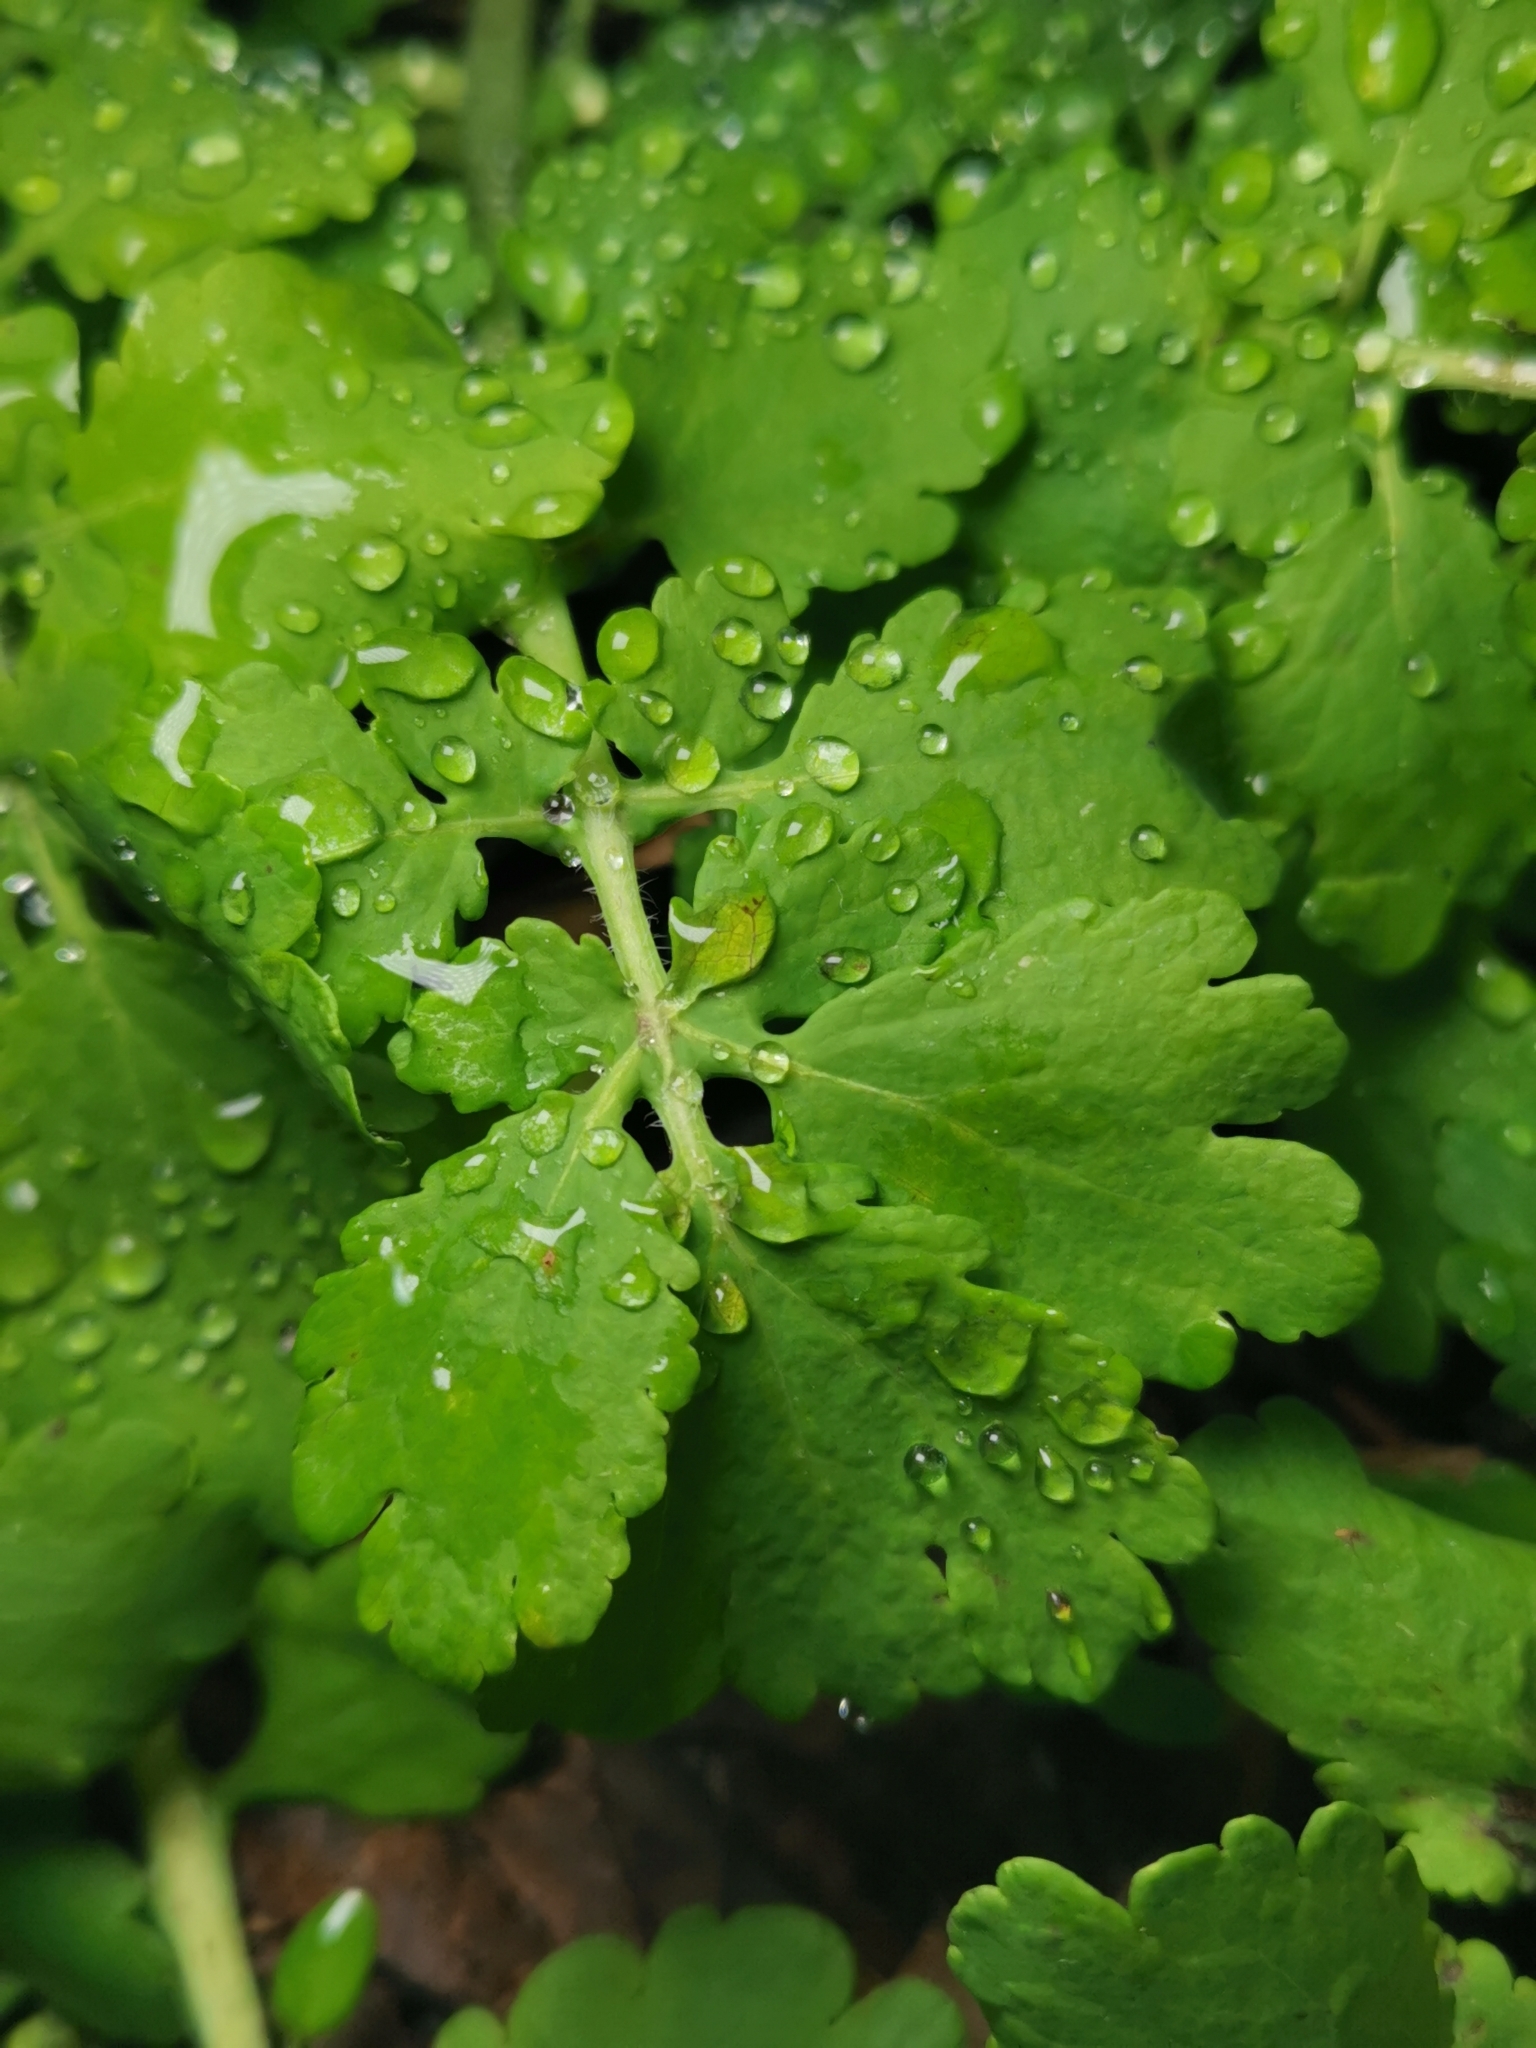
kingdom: Plantae
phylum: Tracheophyta
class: Magnoliopsida
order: Ranunculales
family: Papaveraceae
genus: Chelidonium
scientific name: Chelidonium majus
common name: Greater celandine
